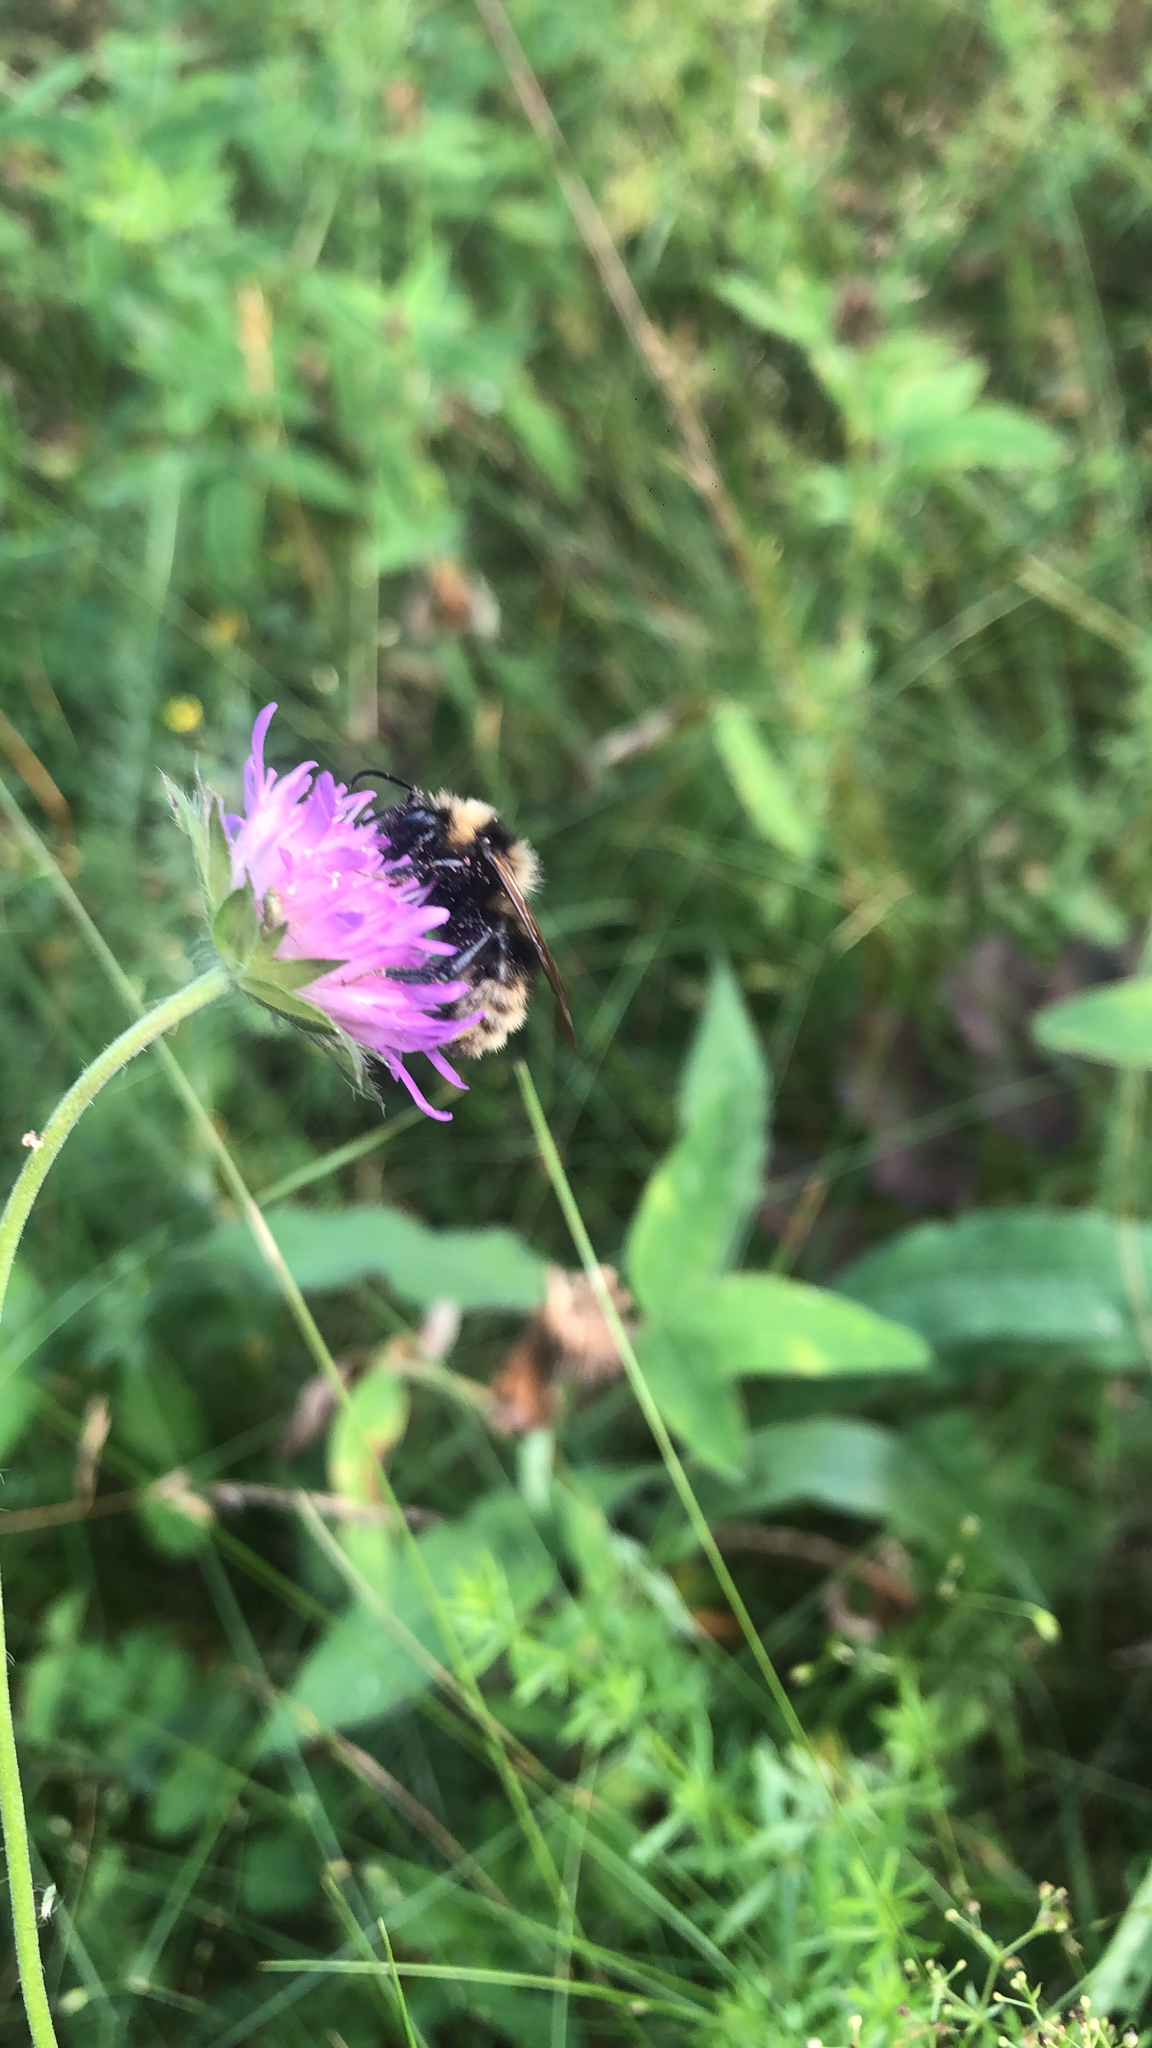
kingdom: Animalia
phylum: Arthropoda
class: Insecta
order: Hymenoptera
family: Apidae
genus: Bombus
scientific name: Bombus
